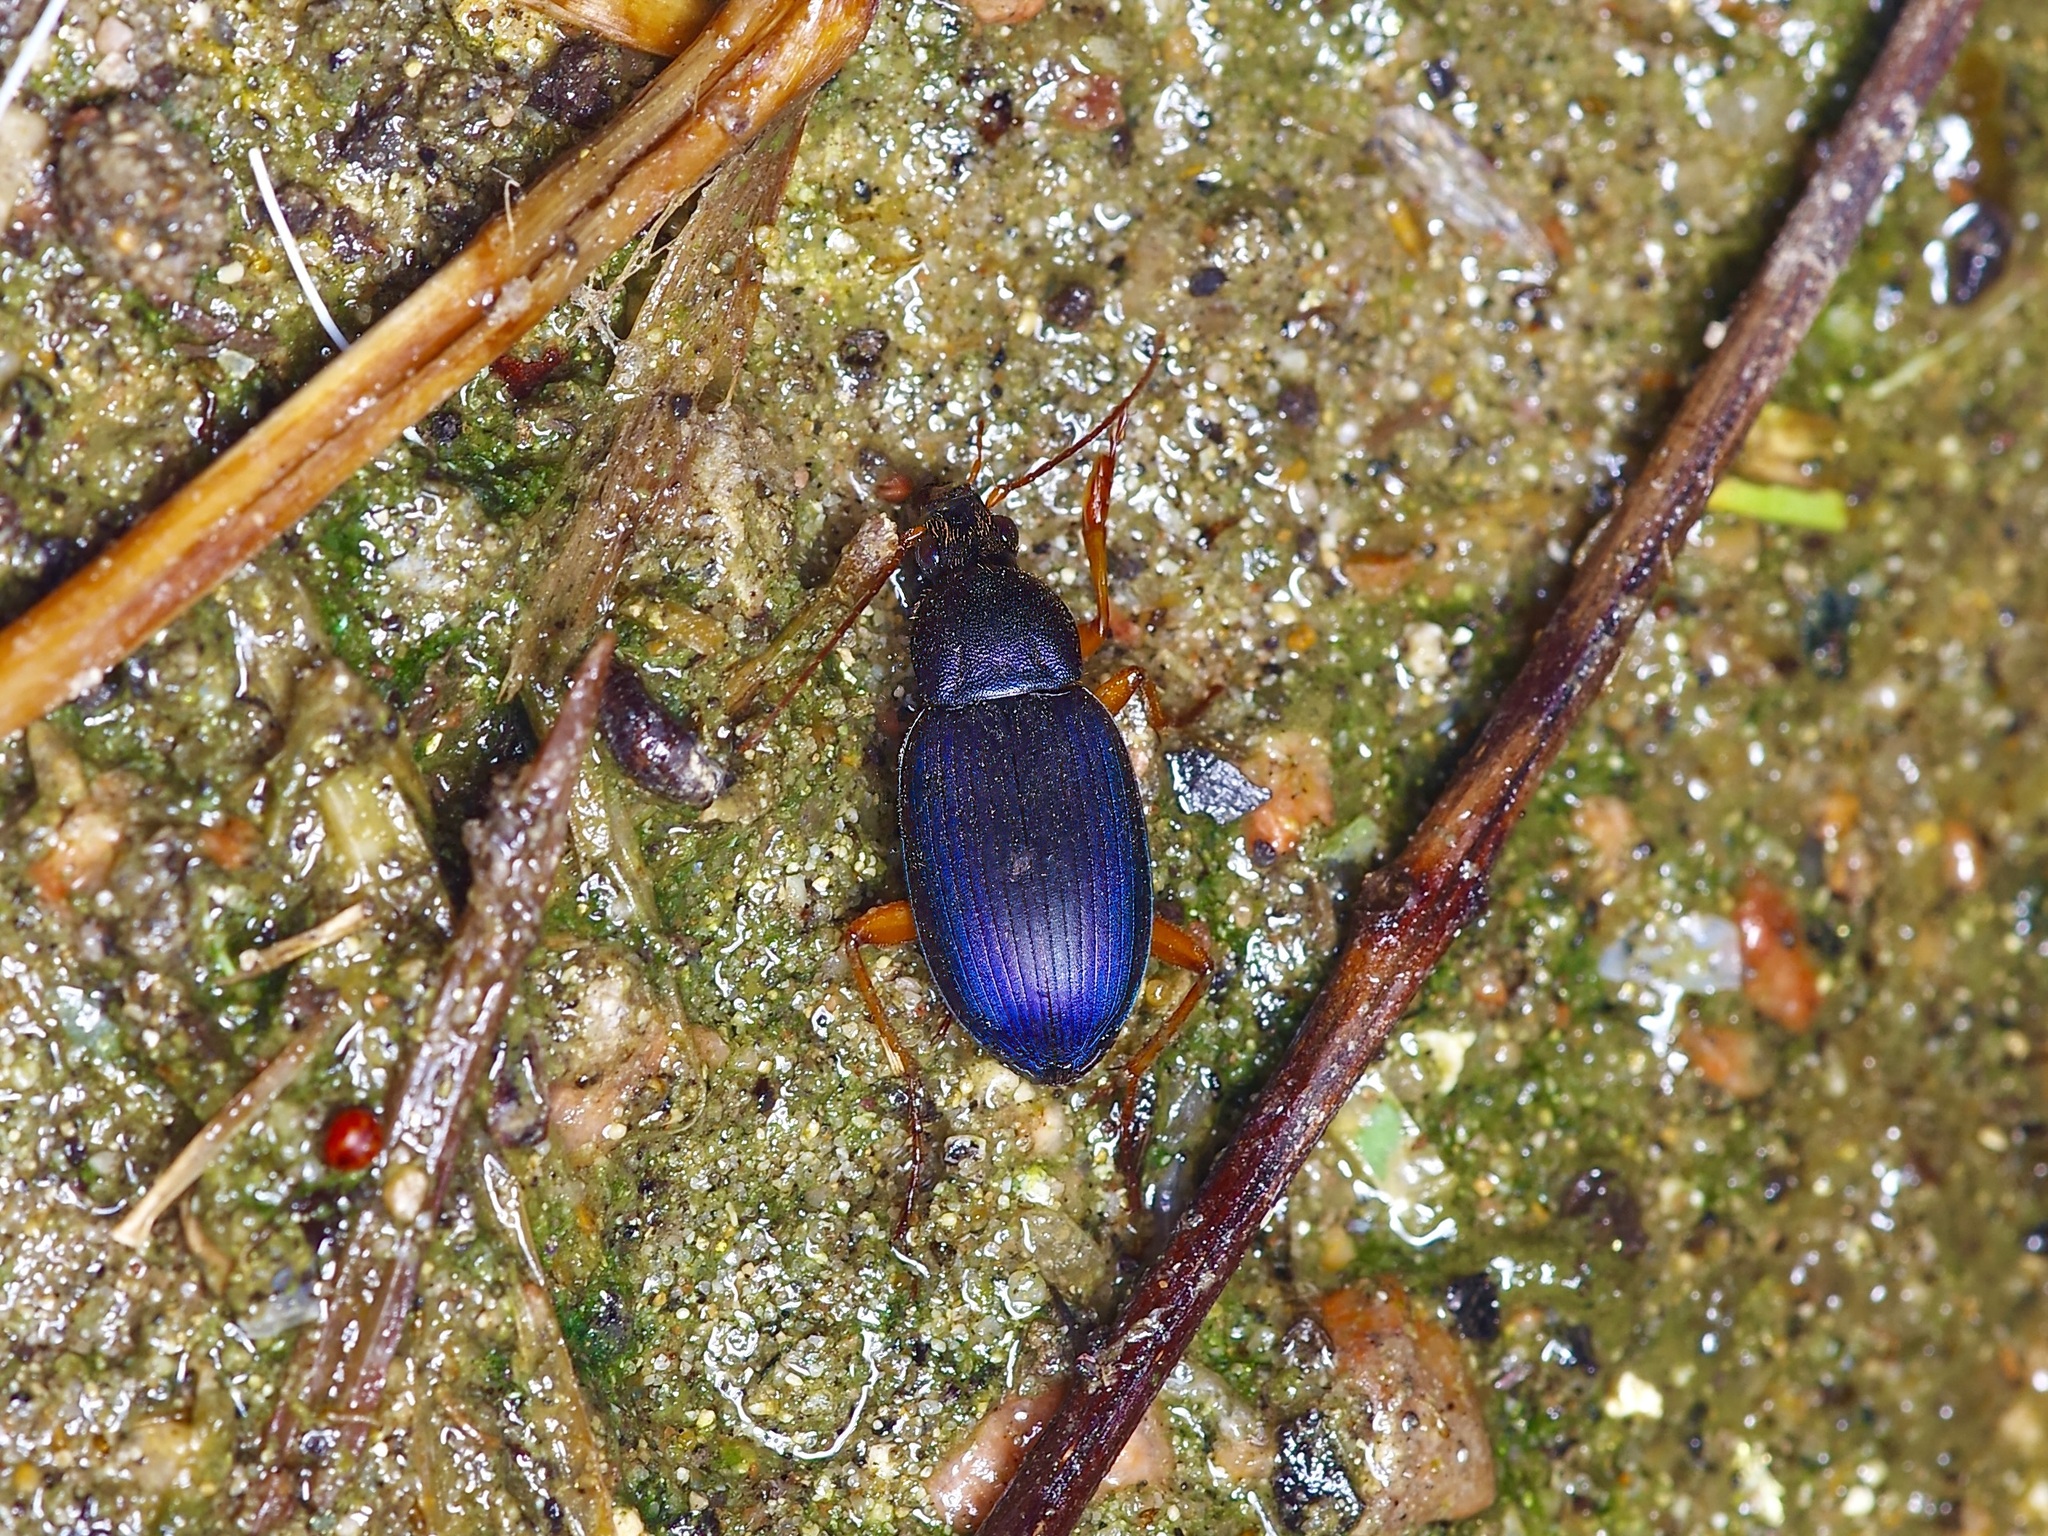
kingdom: Animalia
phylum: Arthropoda
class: Insecta
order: Coleoptera
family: Carabidae
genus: Chlaenius
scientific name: Chlaenius fuscicornis
